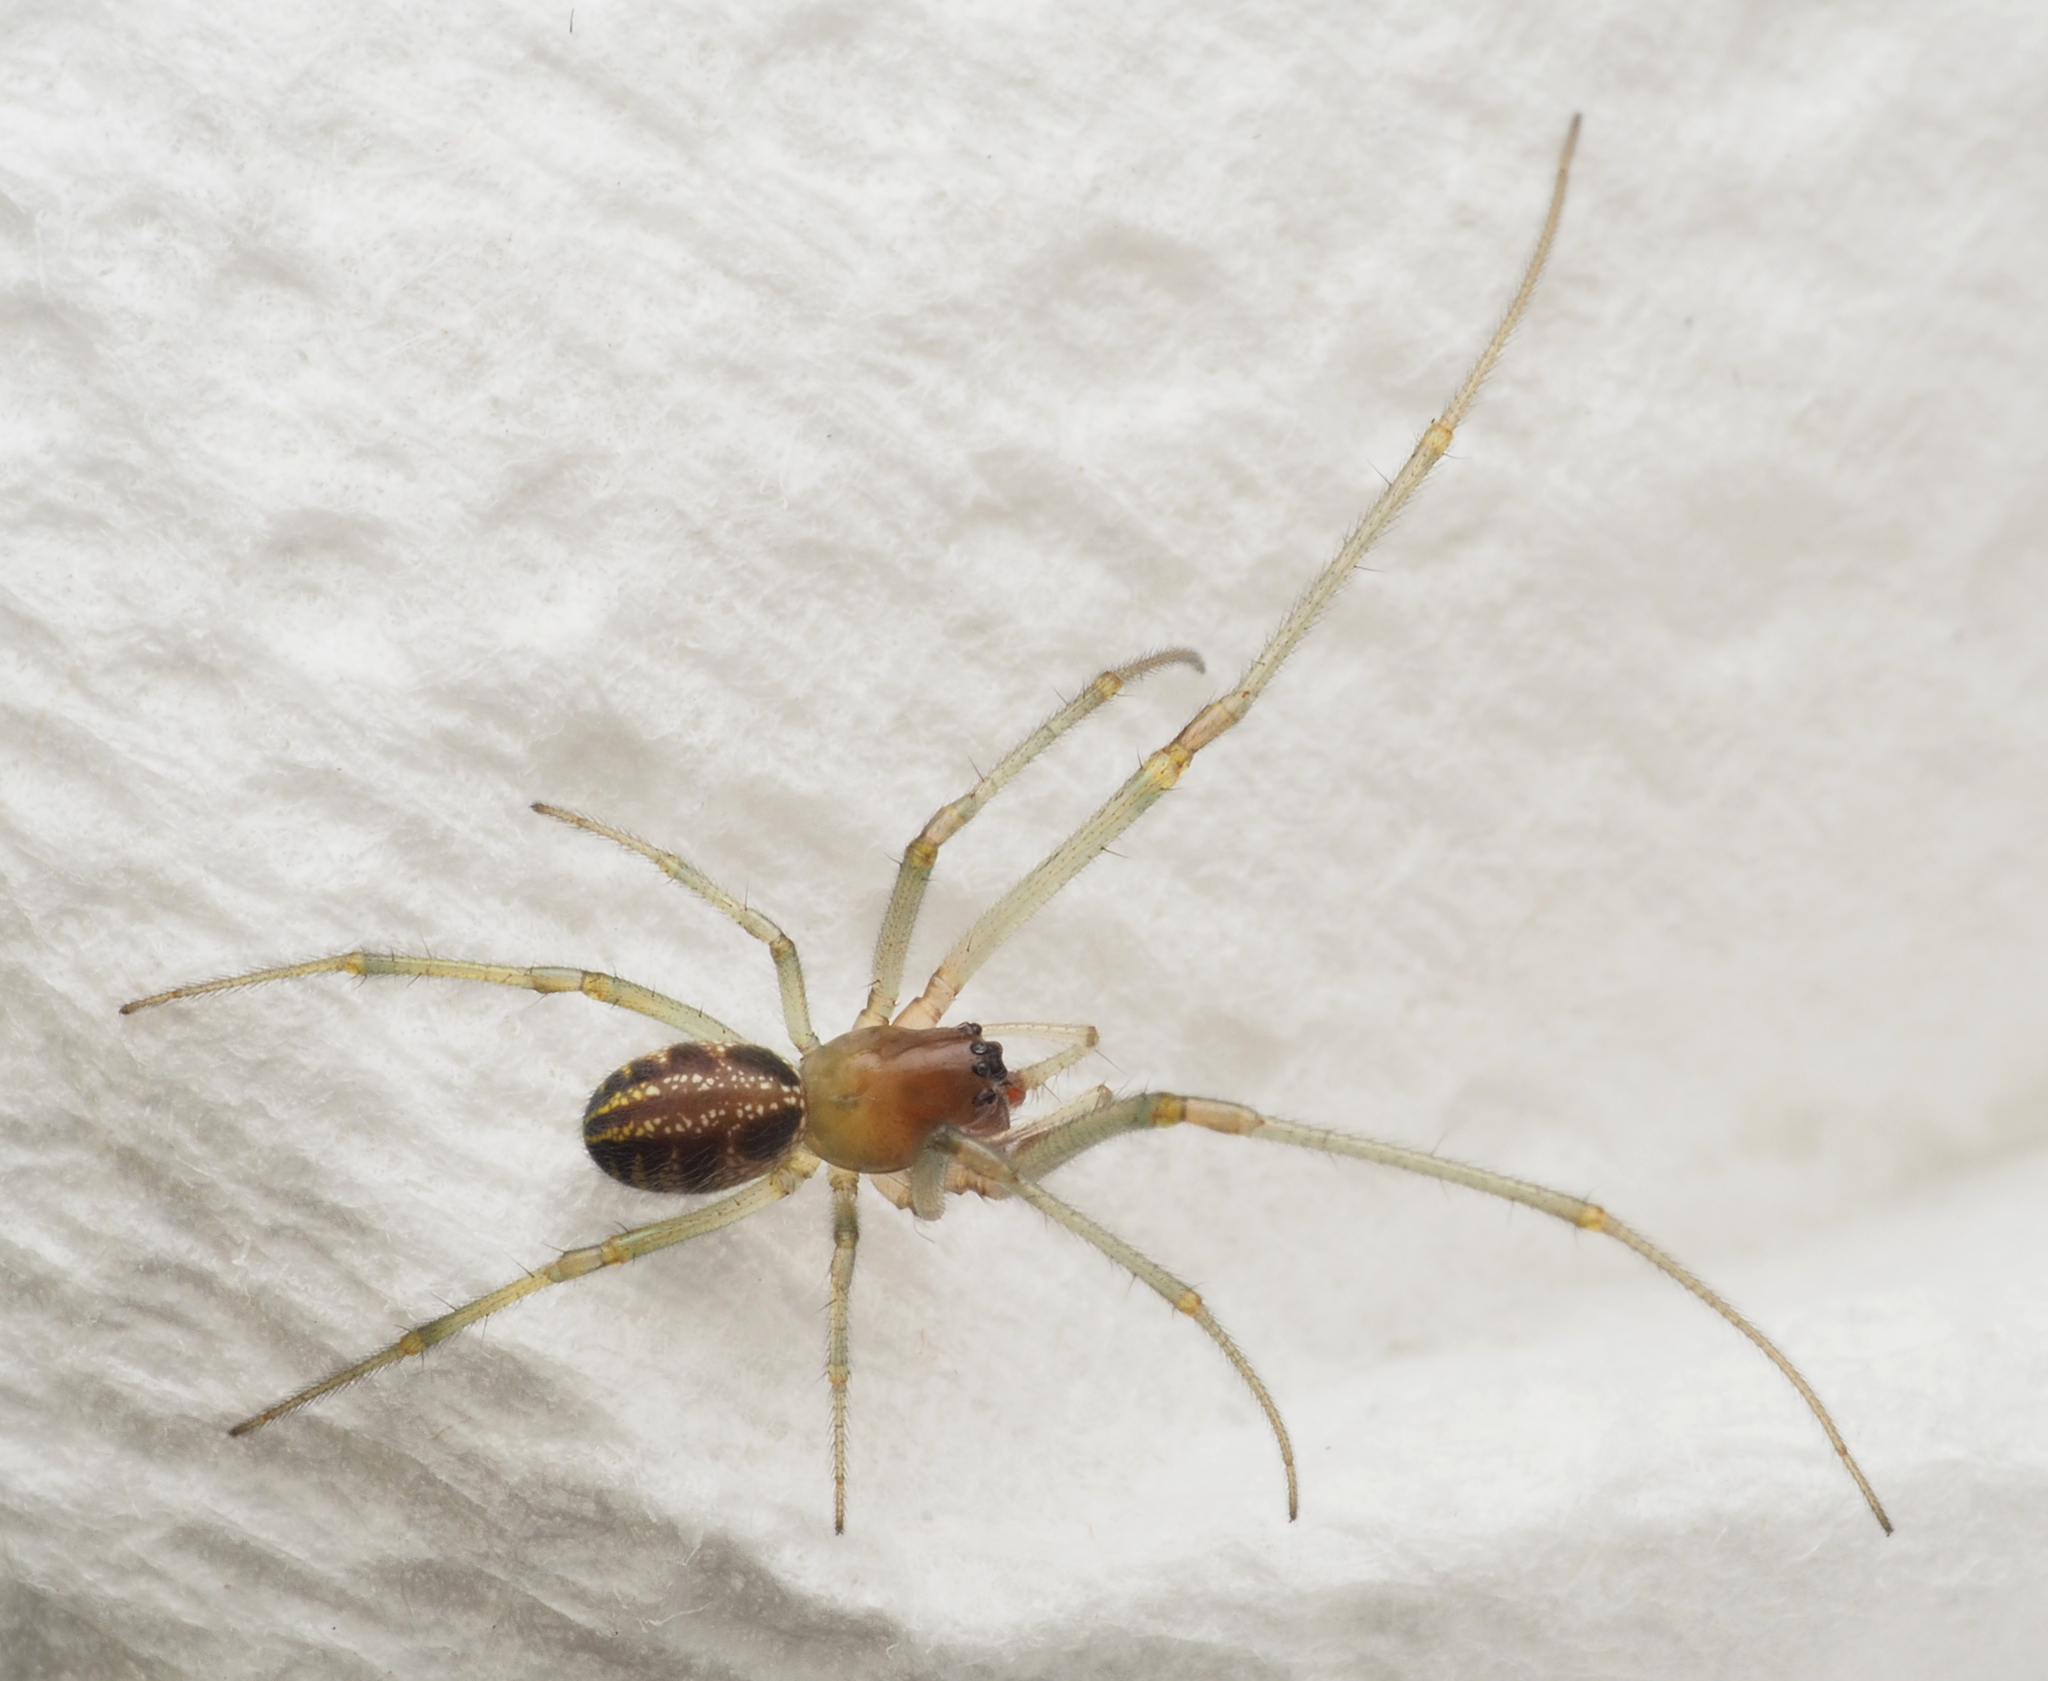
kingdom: Animalia
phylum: Arthropoda
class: Arachnida
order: Araneae
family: Araneidae
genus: Phonognatha
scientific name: Phonognatha graeffei
